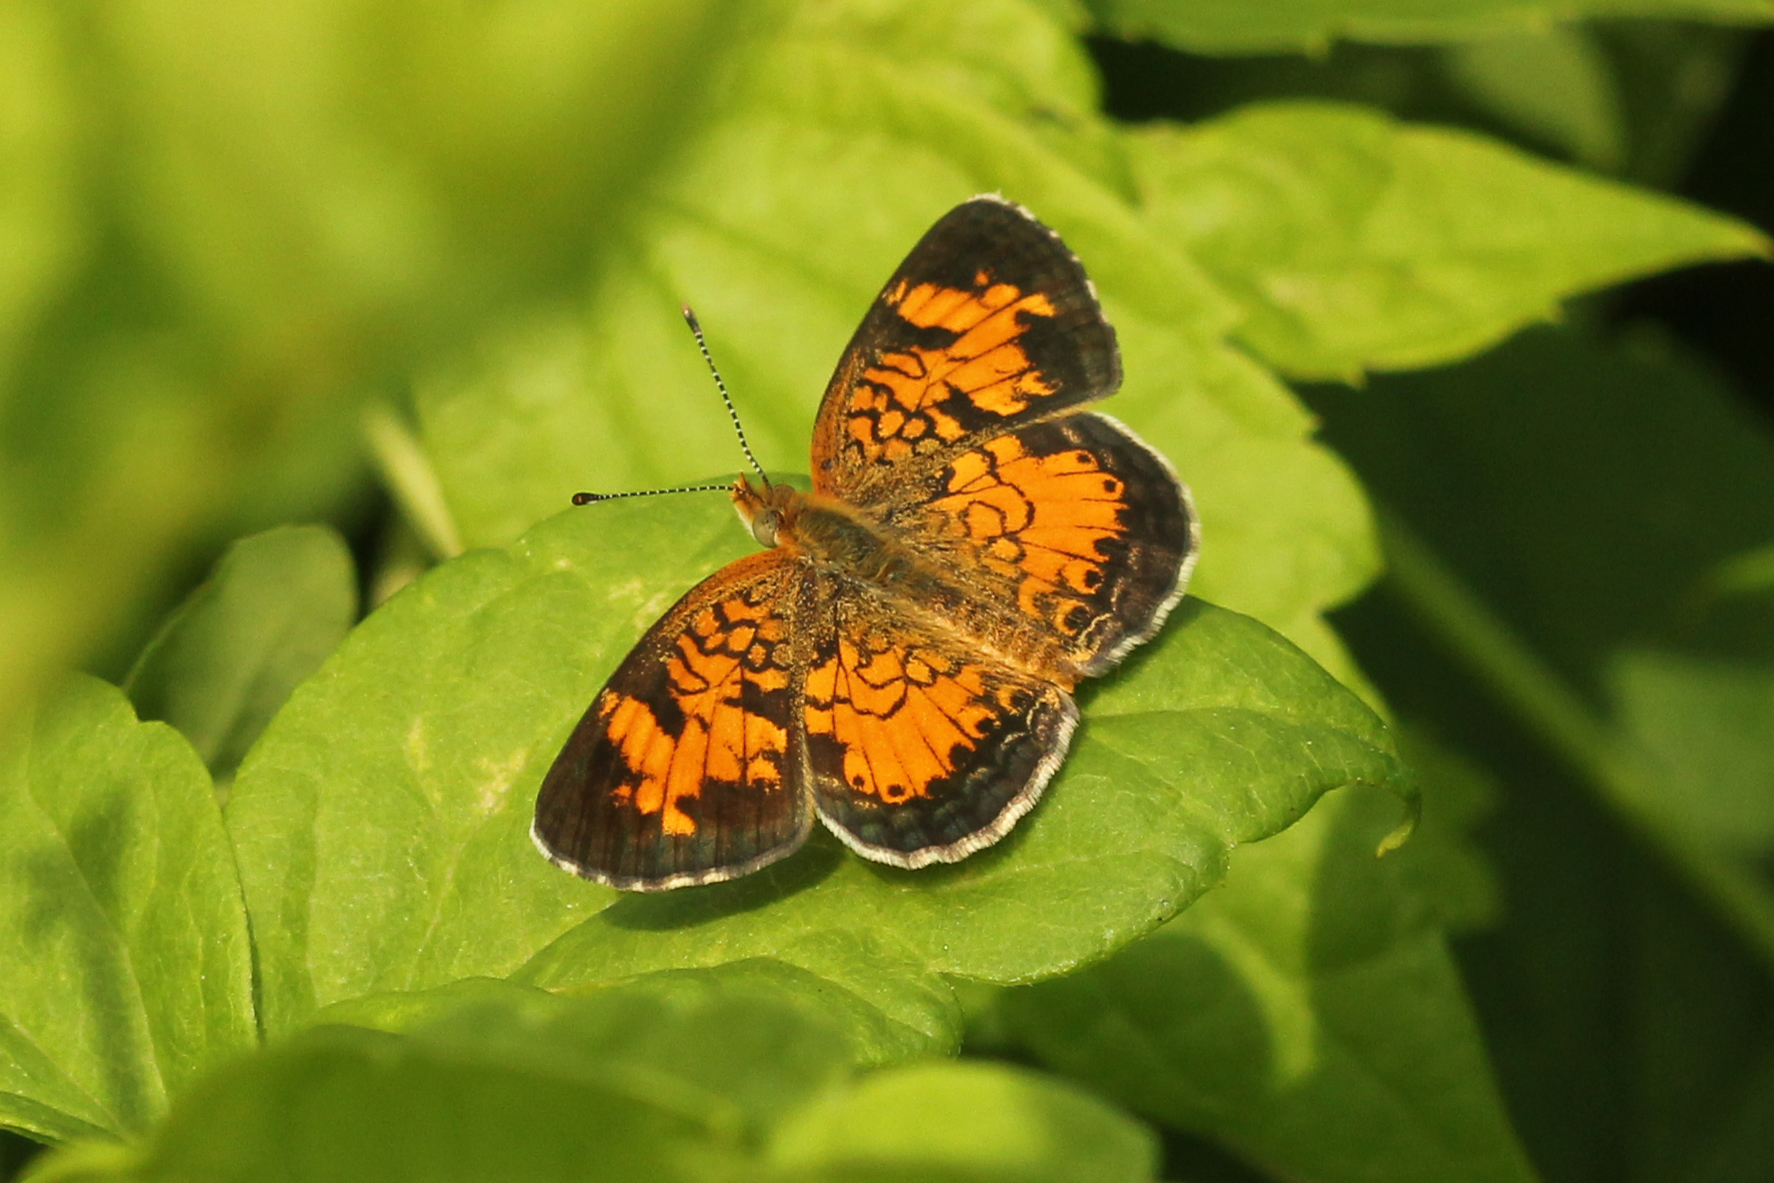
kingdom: Animalia
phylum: Arthropoda
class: Insecta
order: Lepidoptera
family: Nymphalidae
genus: Phyciodes
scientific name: Phyciodes tharos
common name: Pearl crescent
